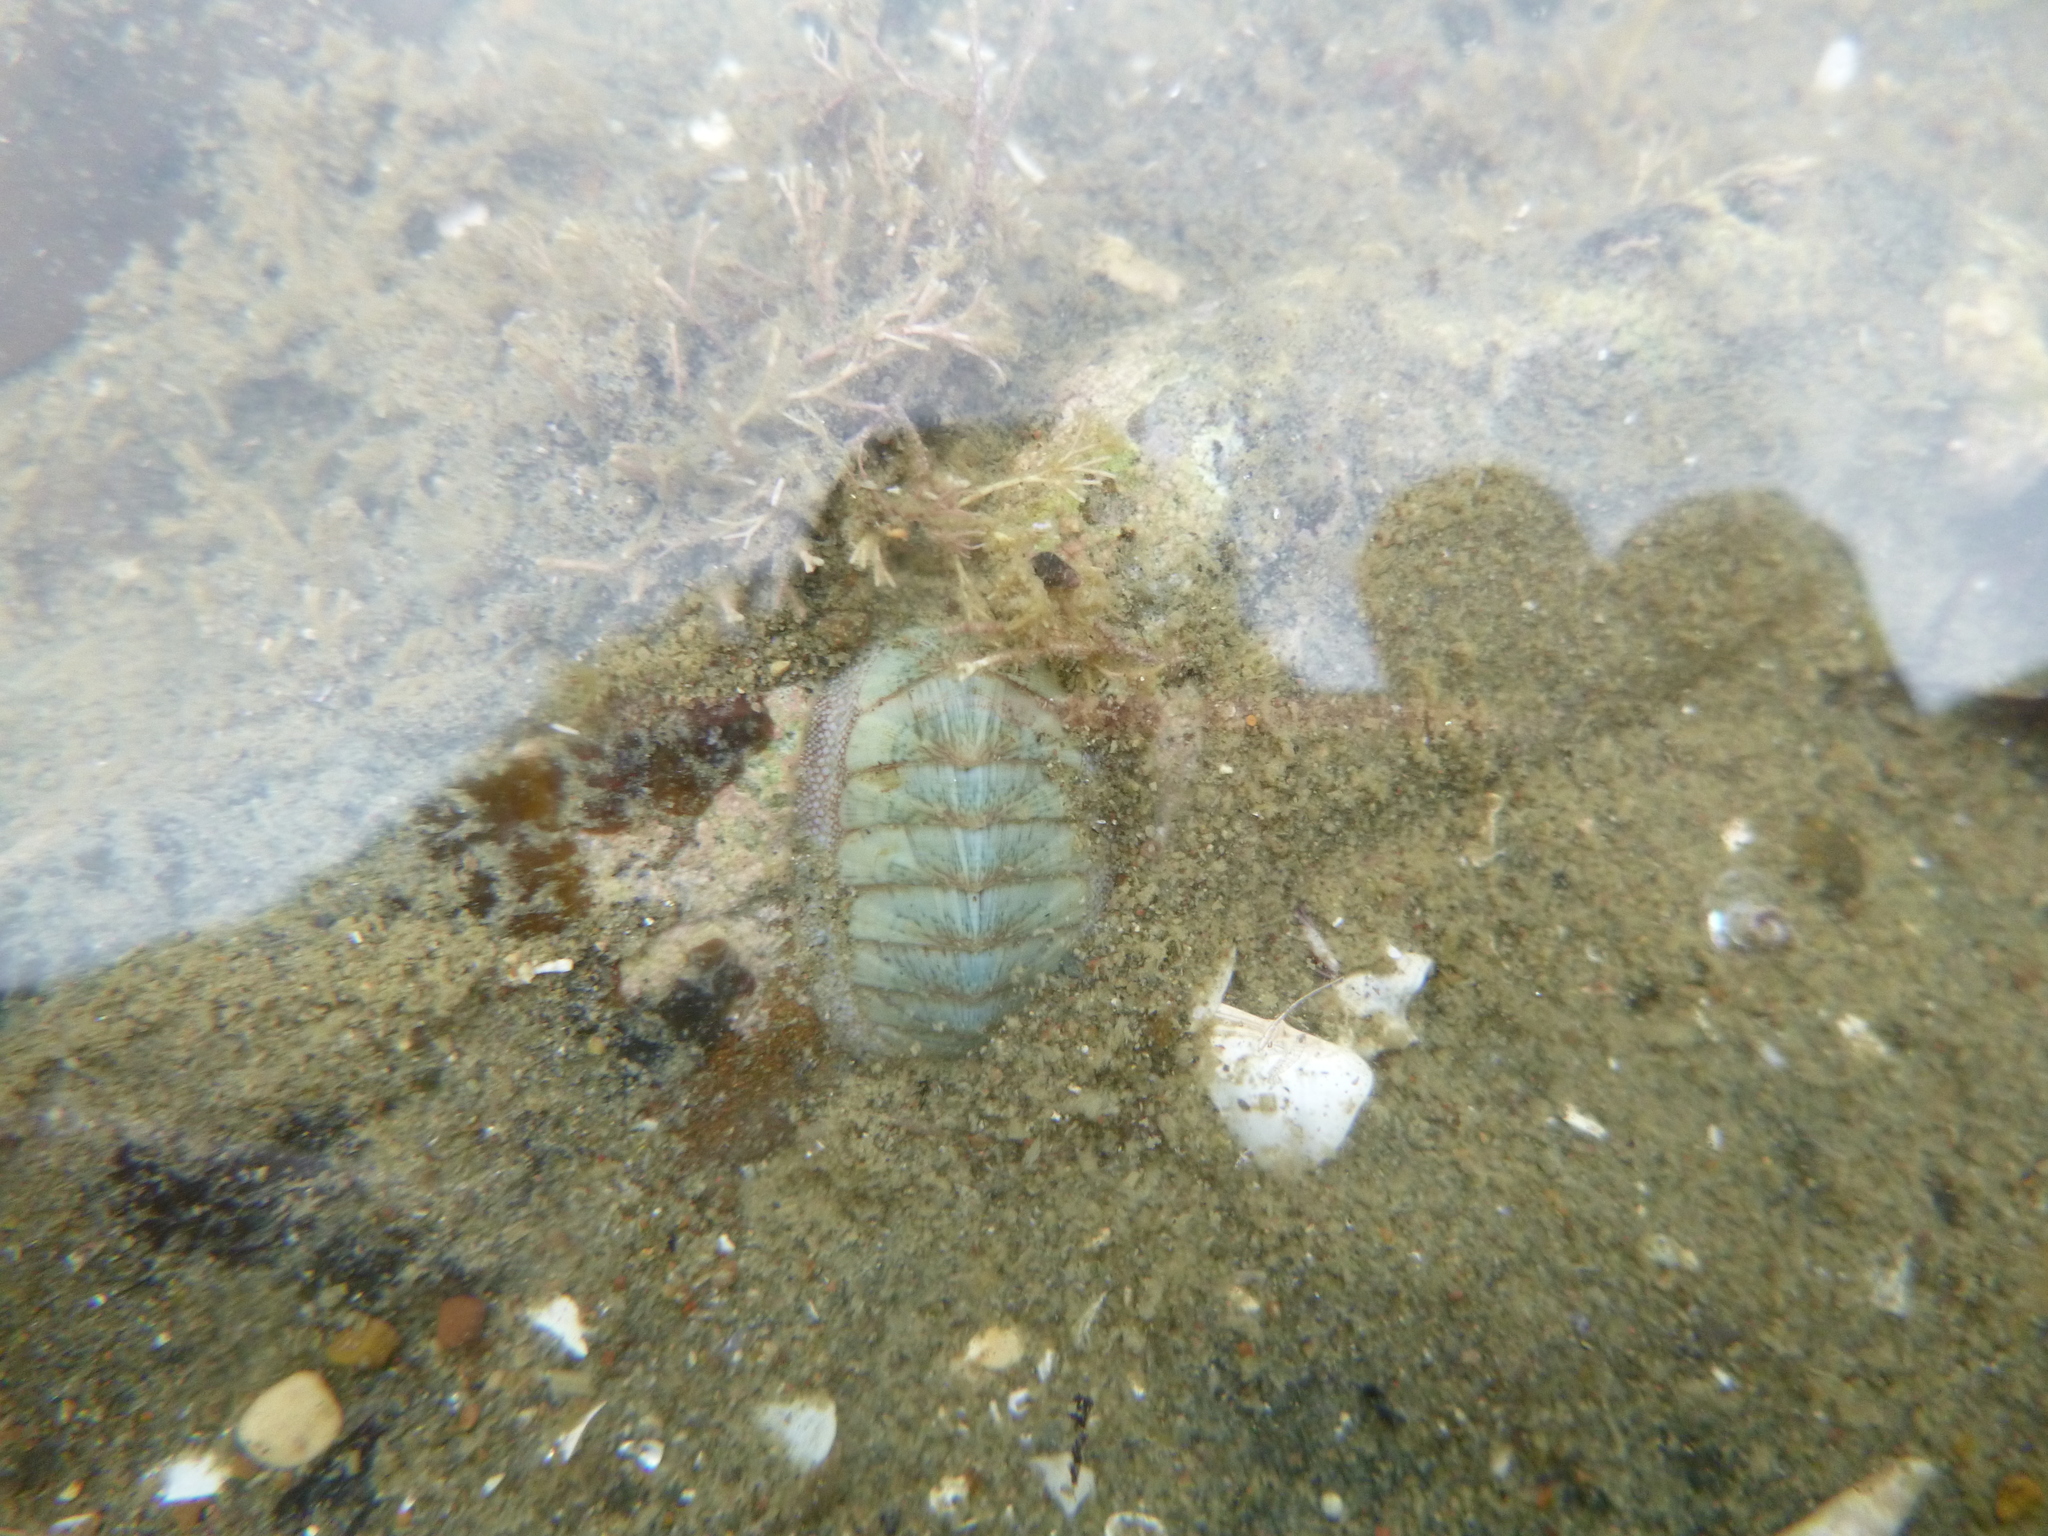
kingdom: Animalia
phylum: Mollusca
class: Polyplacophora
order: Chitonida
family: Chitonidae
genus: Chiton
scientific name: Chiton glaucus
